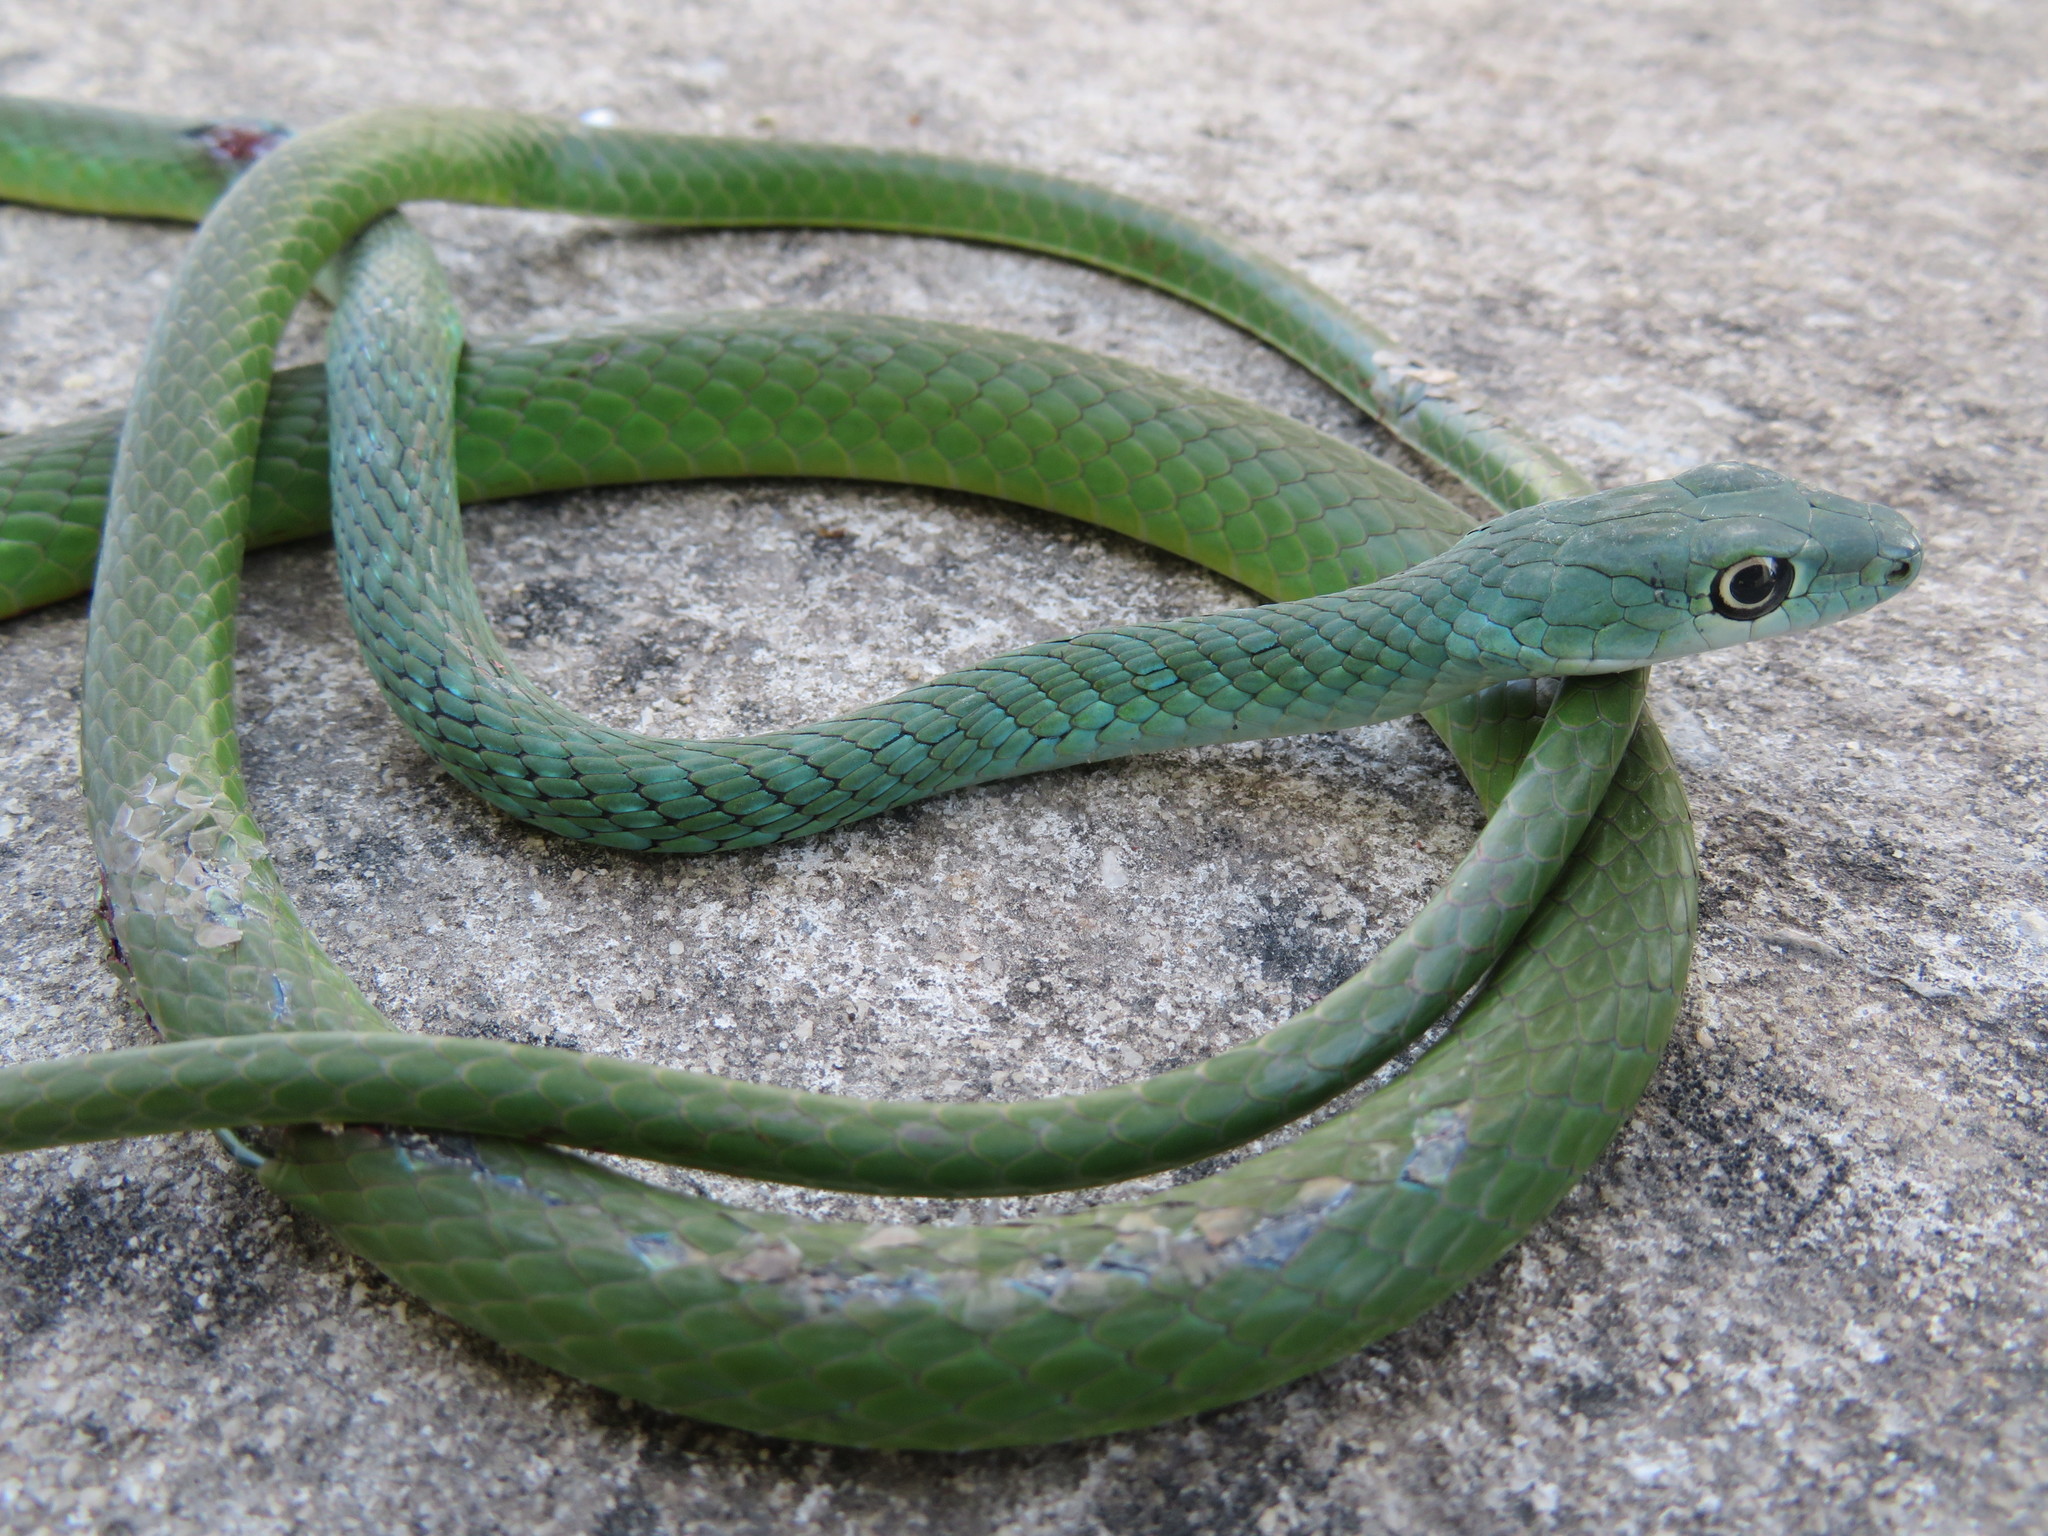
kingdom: Animalia
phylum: Chordata
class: Squamata
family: Colubridae
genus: Philothamnus
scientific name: Philothamnus semivariegatus
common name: Spotted bush snake
